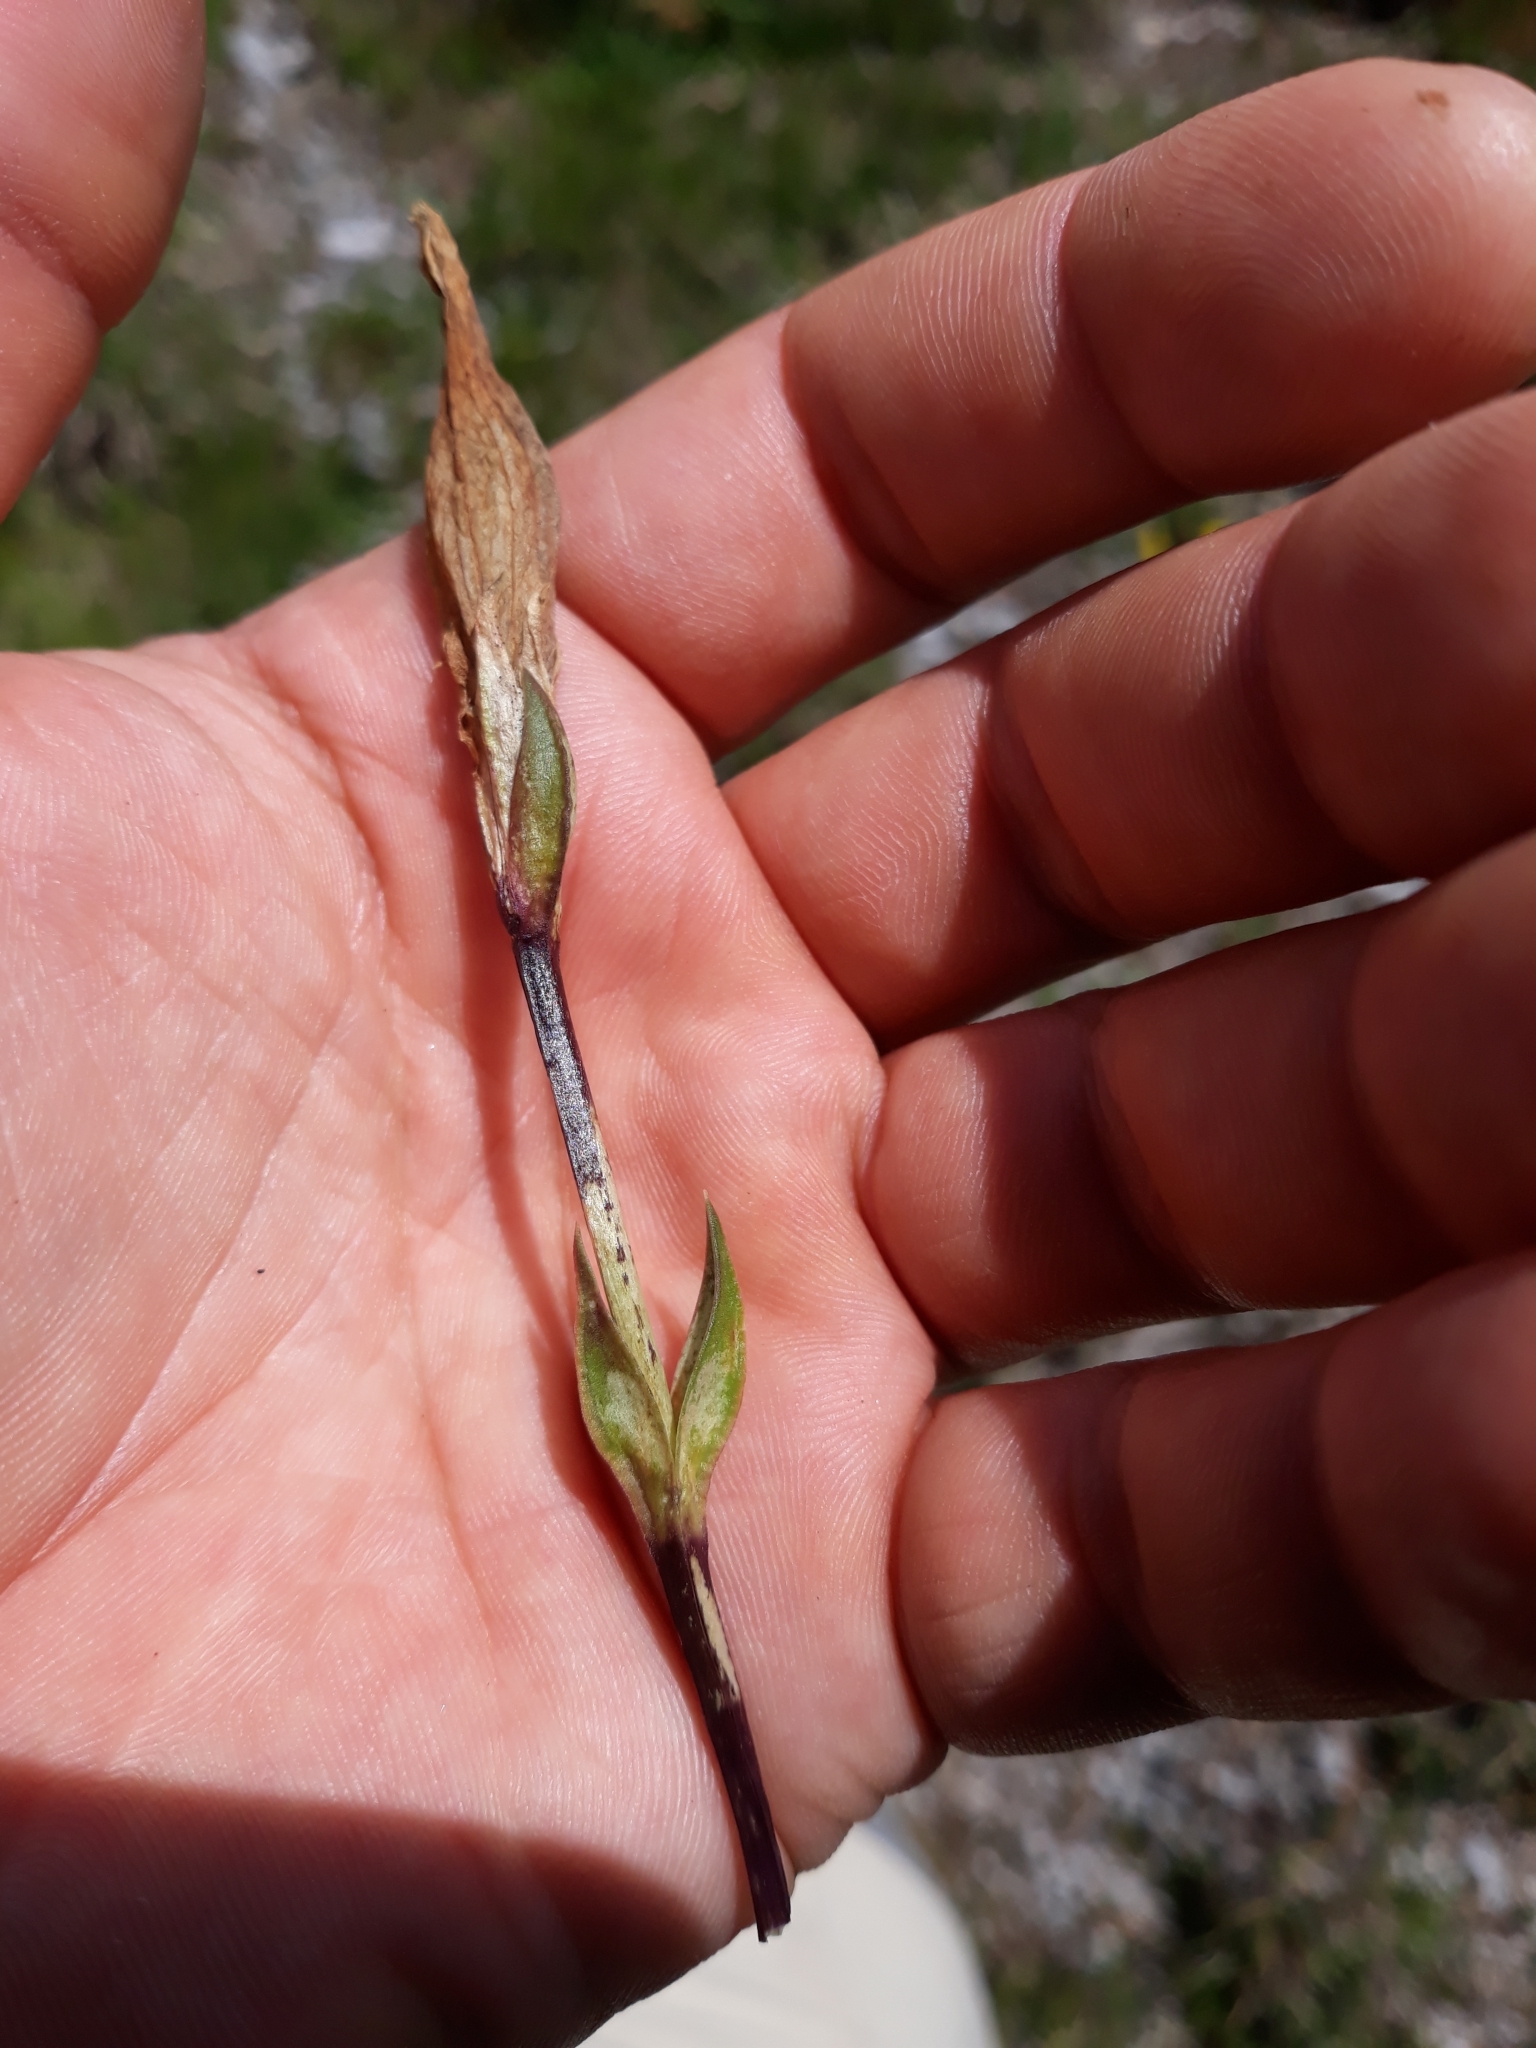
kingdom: Plantae
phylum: Tracheophyta
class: Magnoliopsida
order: Gentianales
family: Gentianaceae
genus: Gentiana
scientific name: Gentiana
